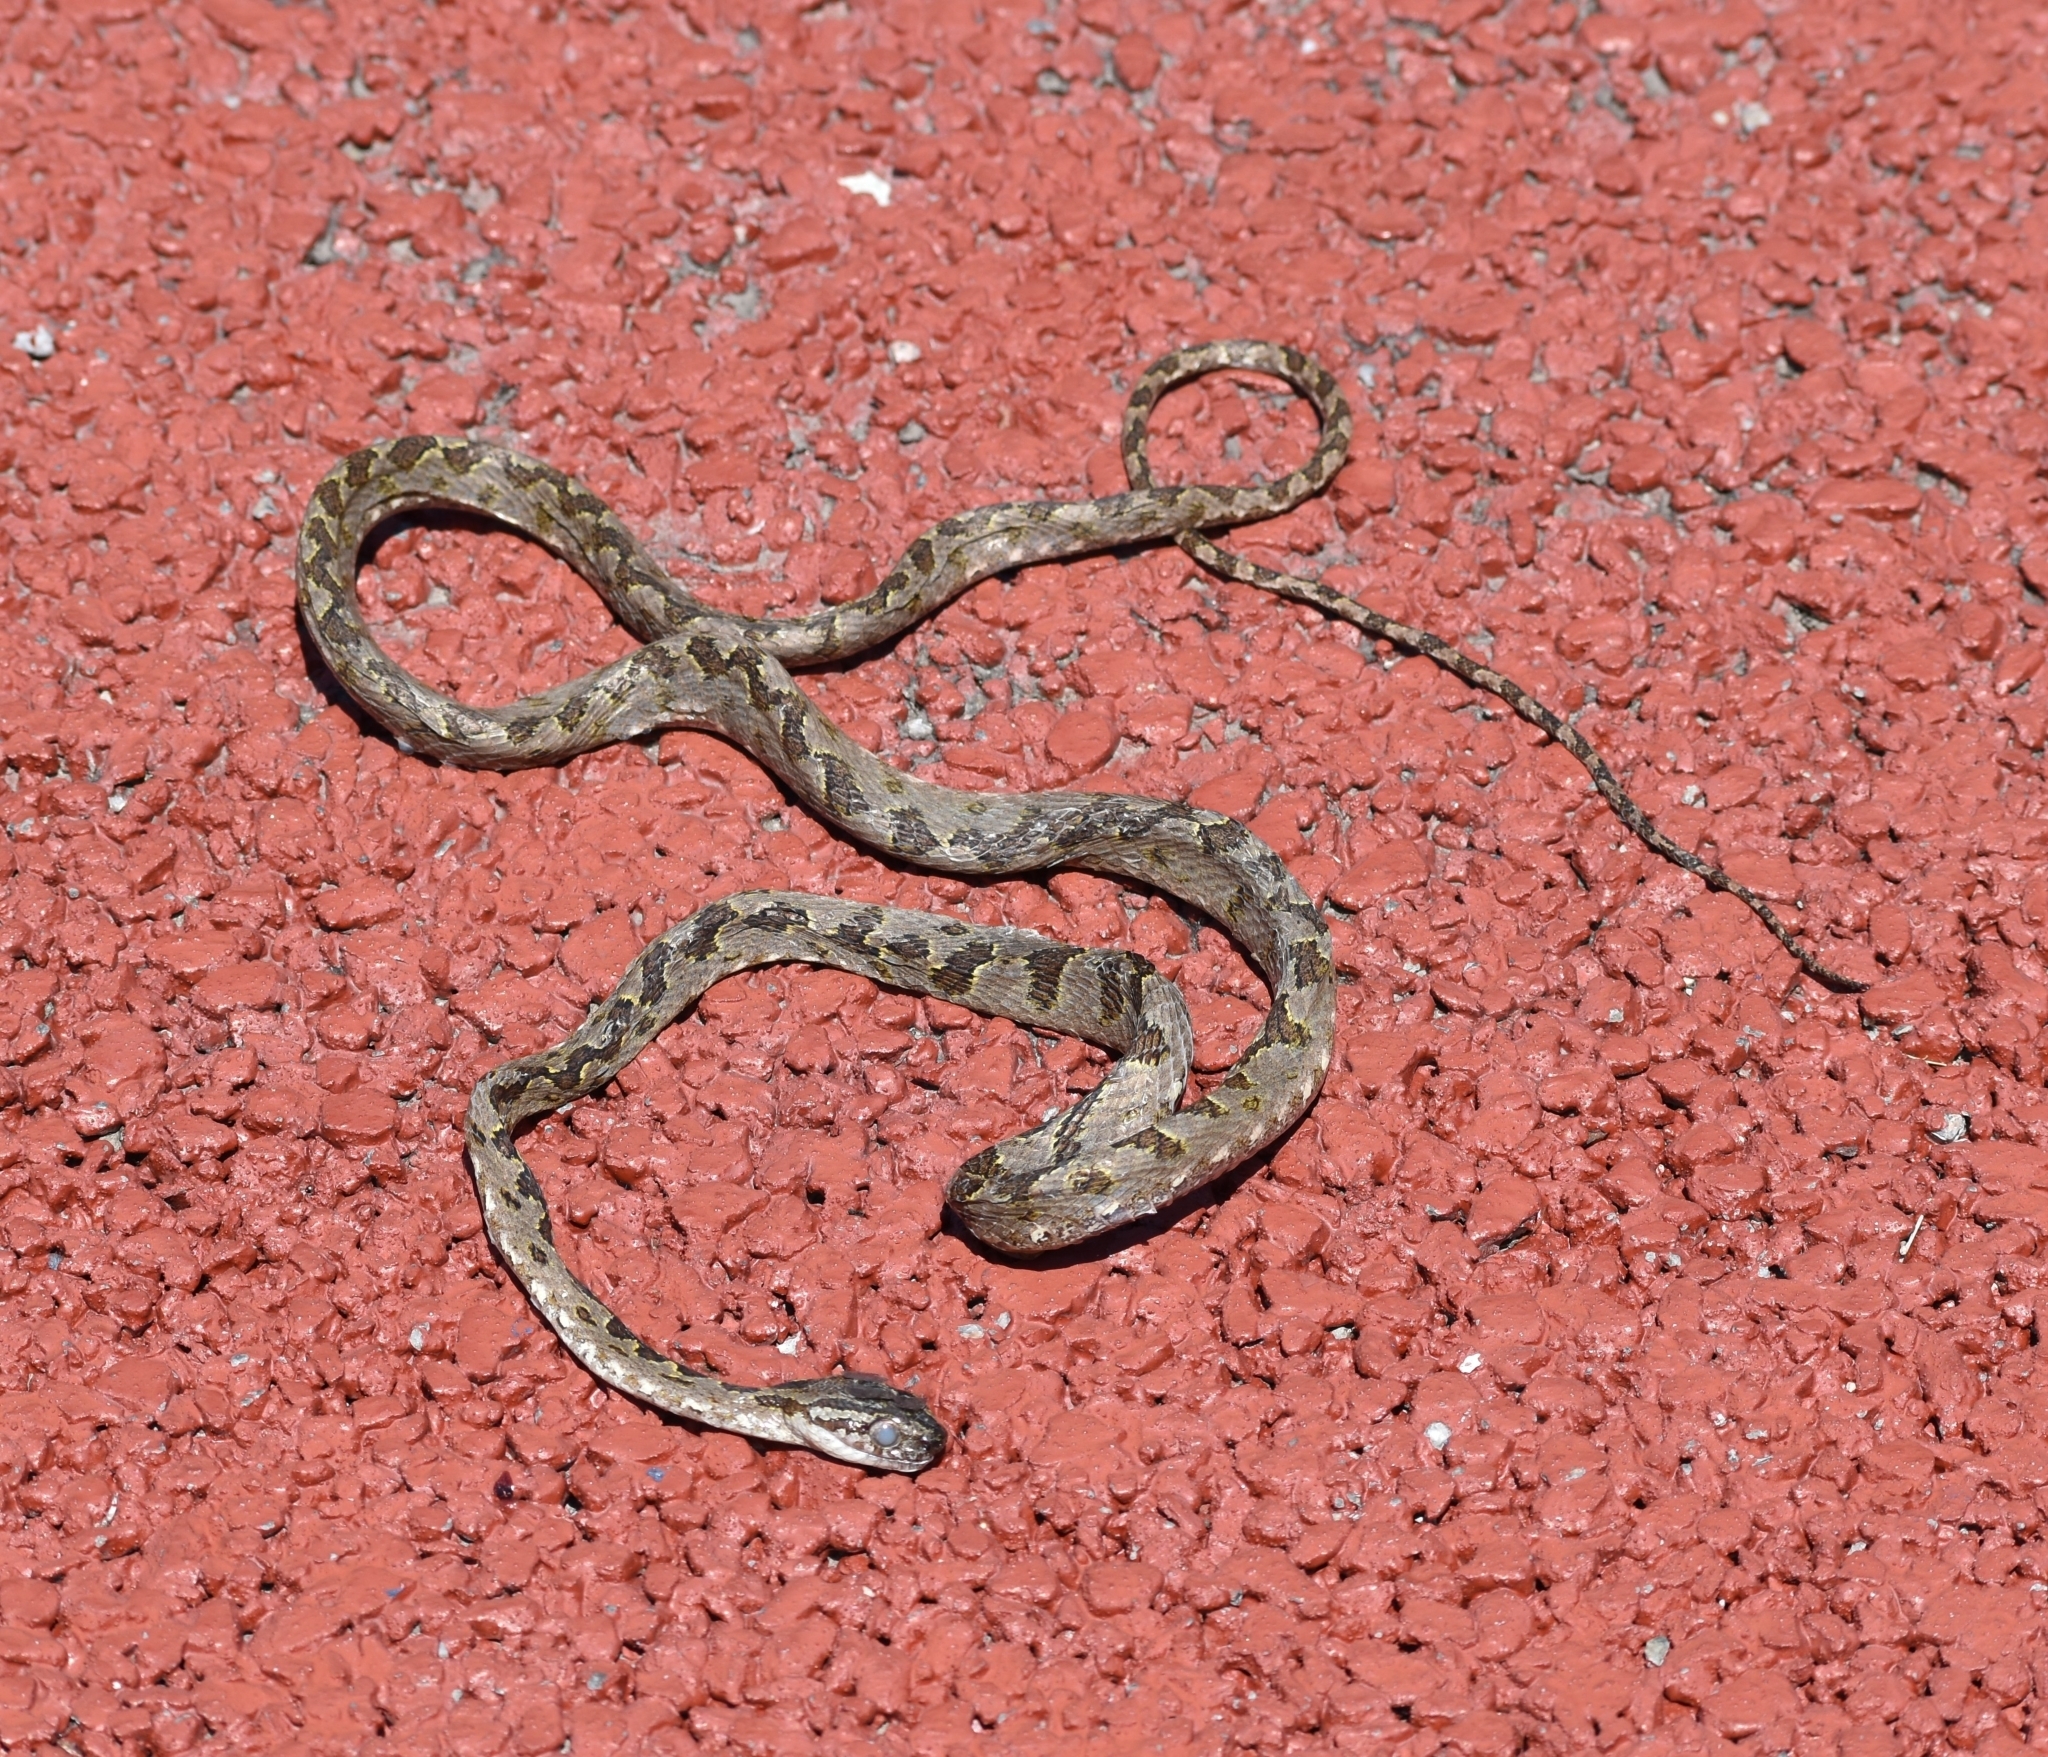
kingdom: Animalia
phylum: Chordata
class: Squamata
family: Colubridae
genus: Boiga
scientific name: Boiga kraepelini
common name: Kelung cat snake
